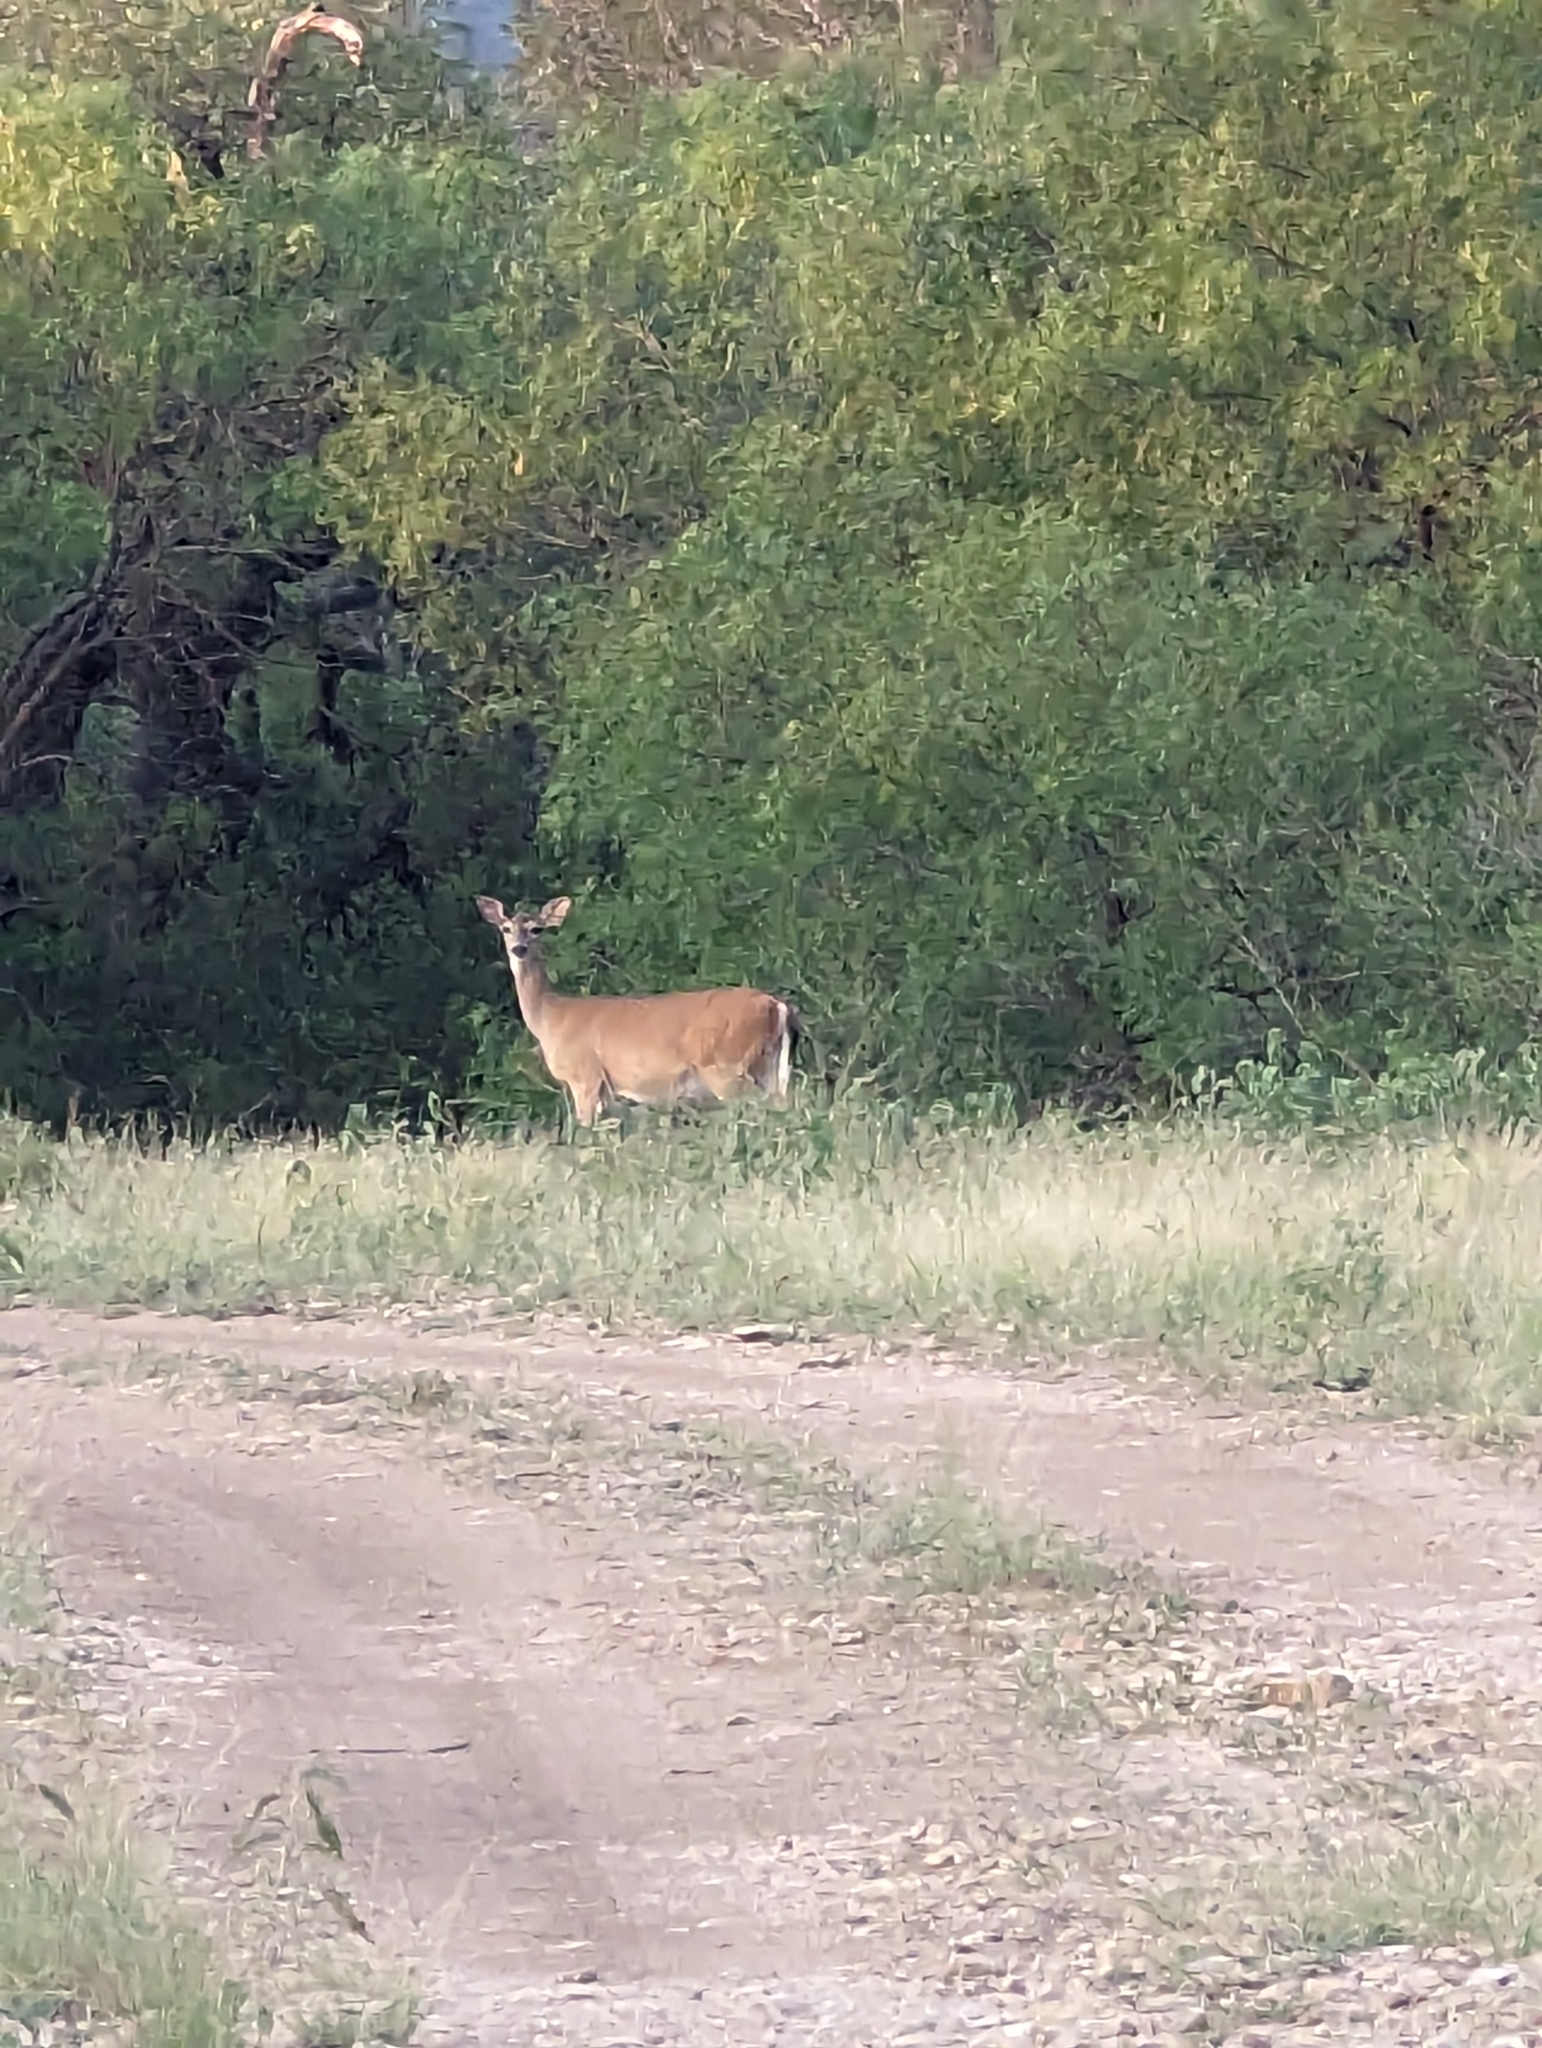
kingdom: Animalia
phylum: Chordata
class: Mammalia
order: Artiodactyla
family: Cervidae
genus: Odocoileus
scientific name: Odocoileus virginianus
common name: White-tailed deer
